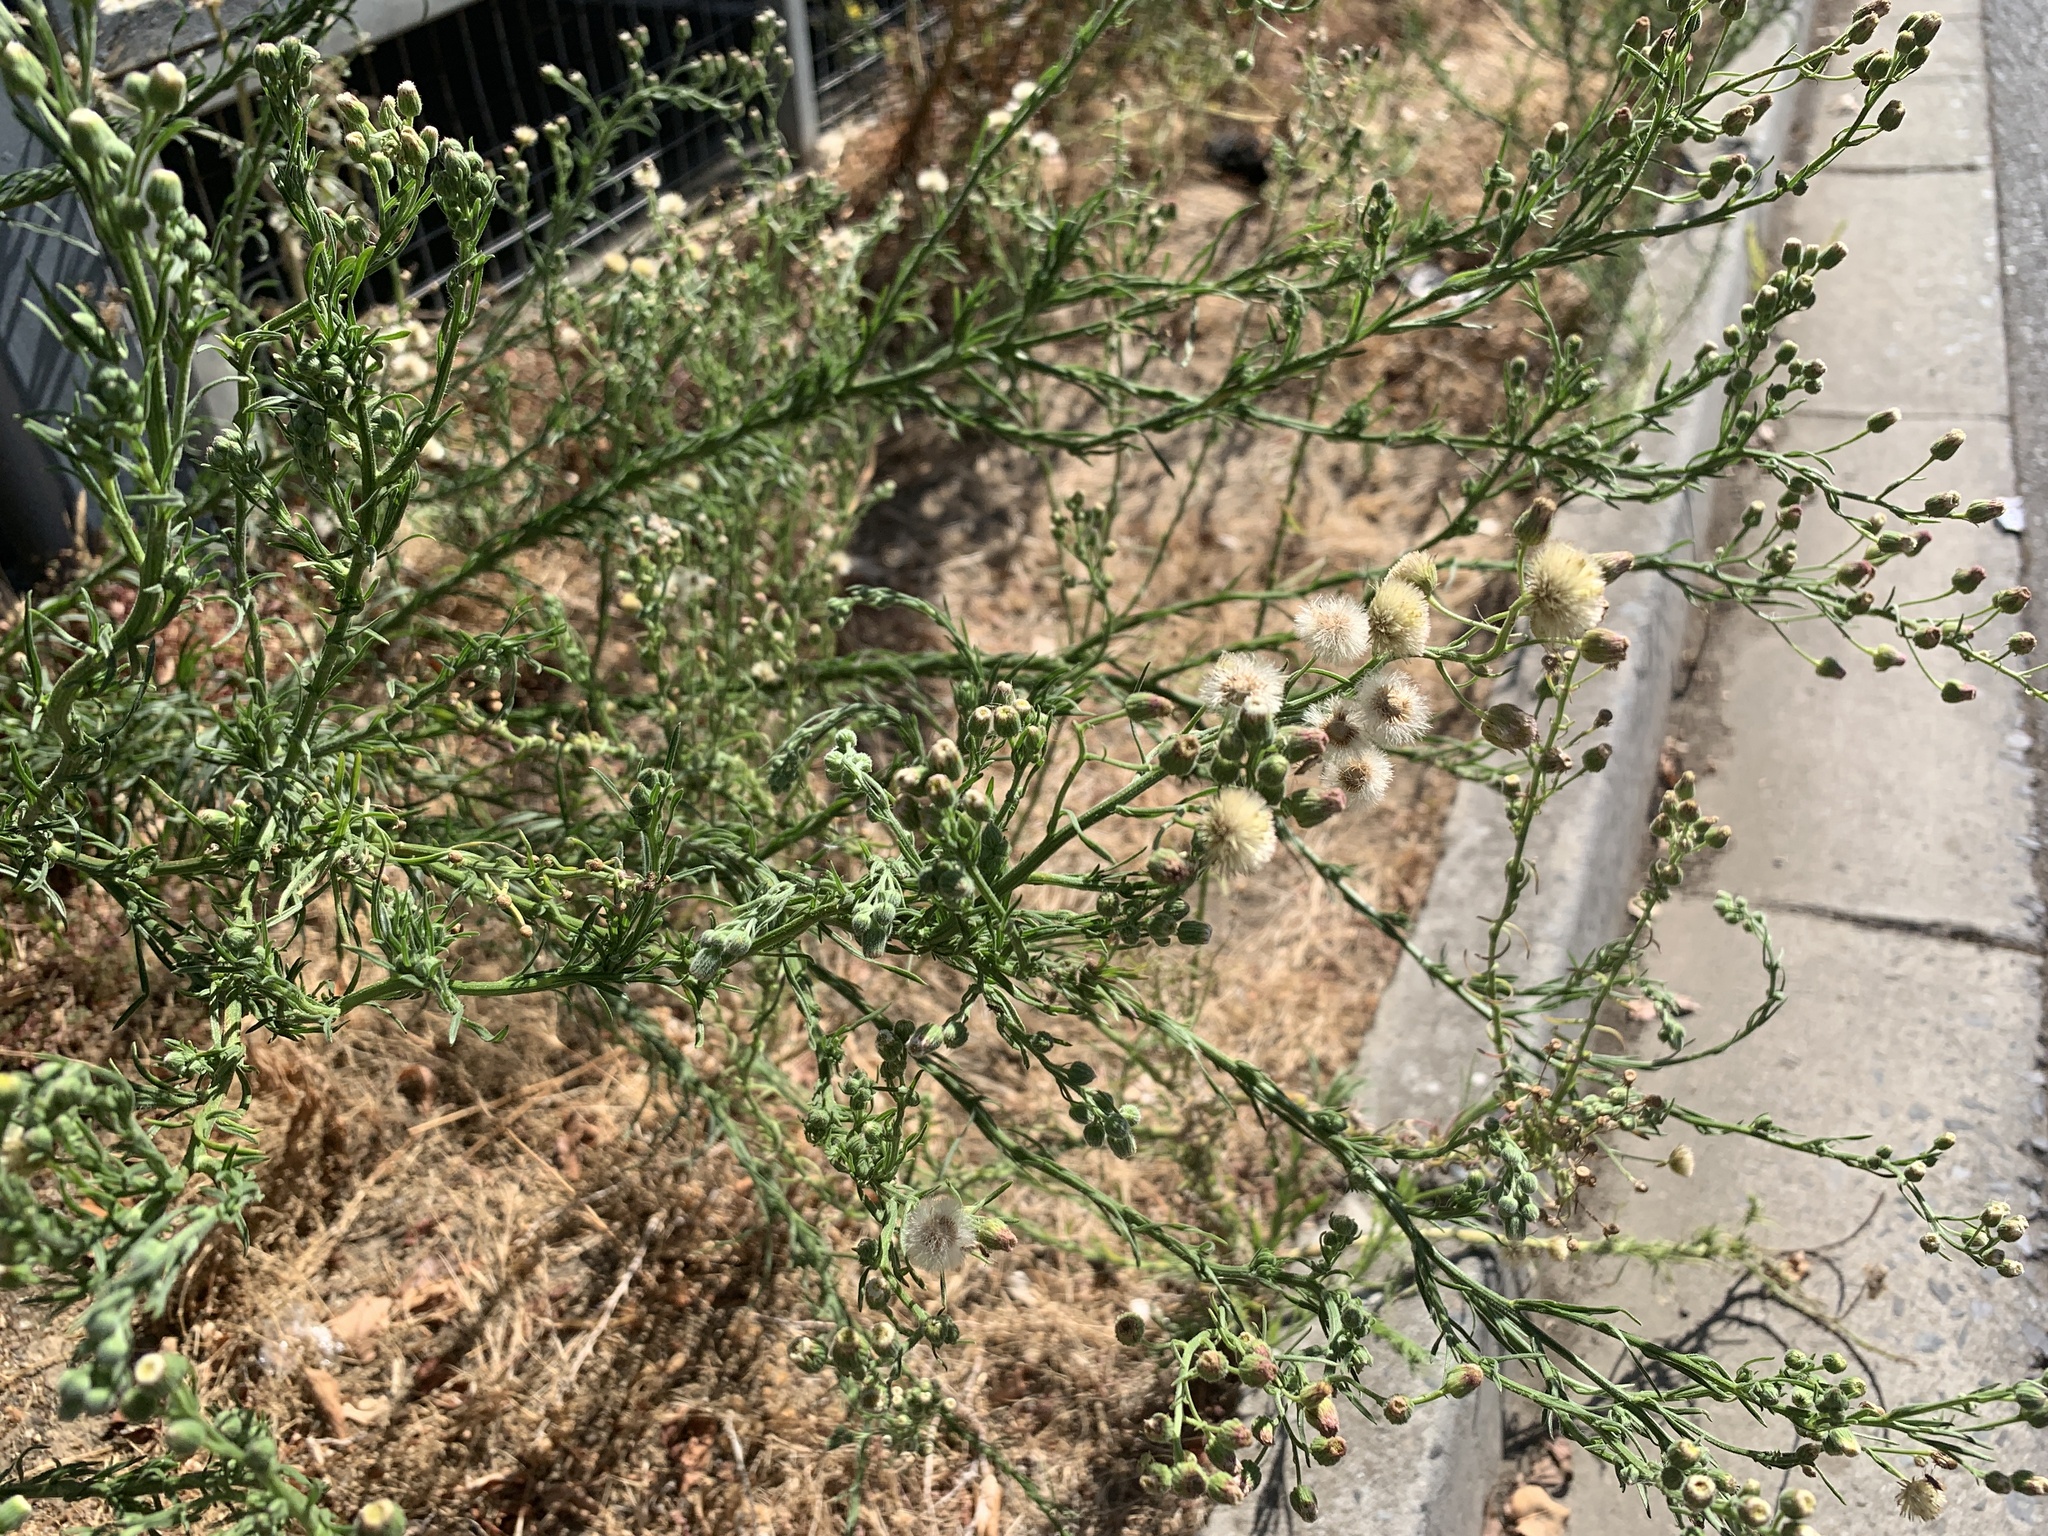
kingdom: Plantae
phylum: Tracheophyta
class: Magnoliopsida
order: Asterales
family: Asteraceae
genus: Erigeron
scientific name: Erigeron bonariensis
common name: Argentine fleabane
